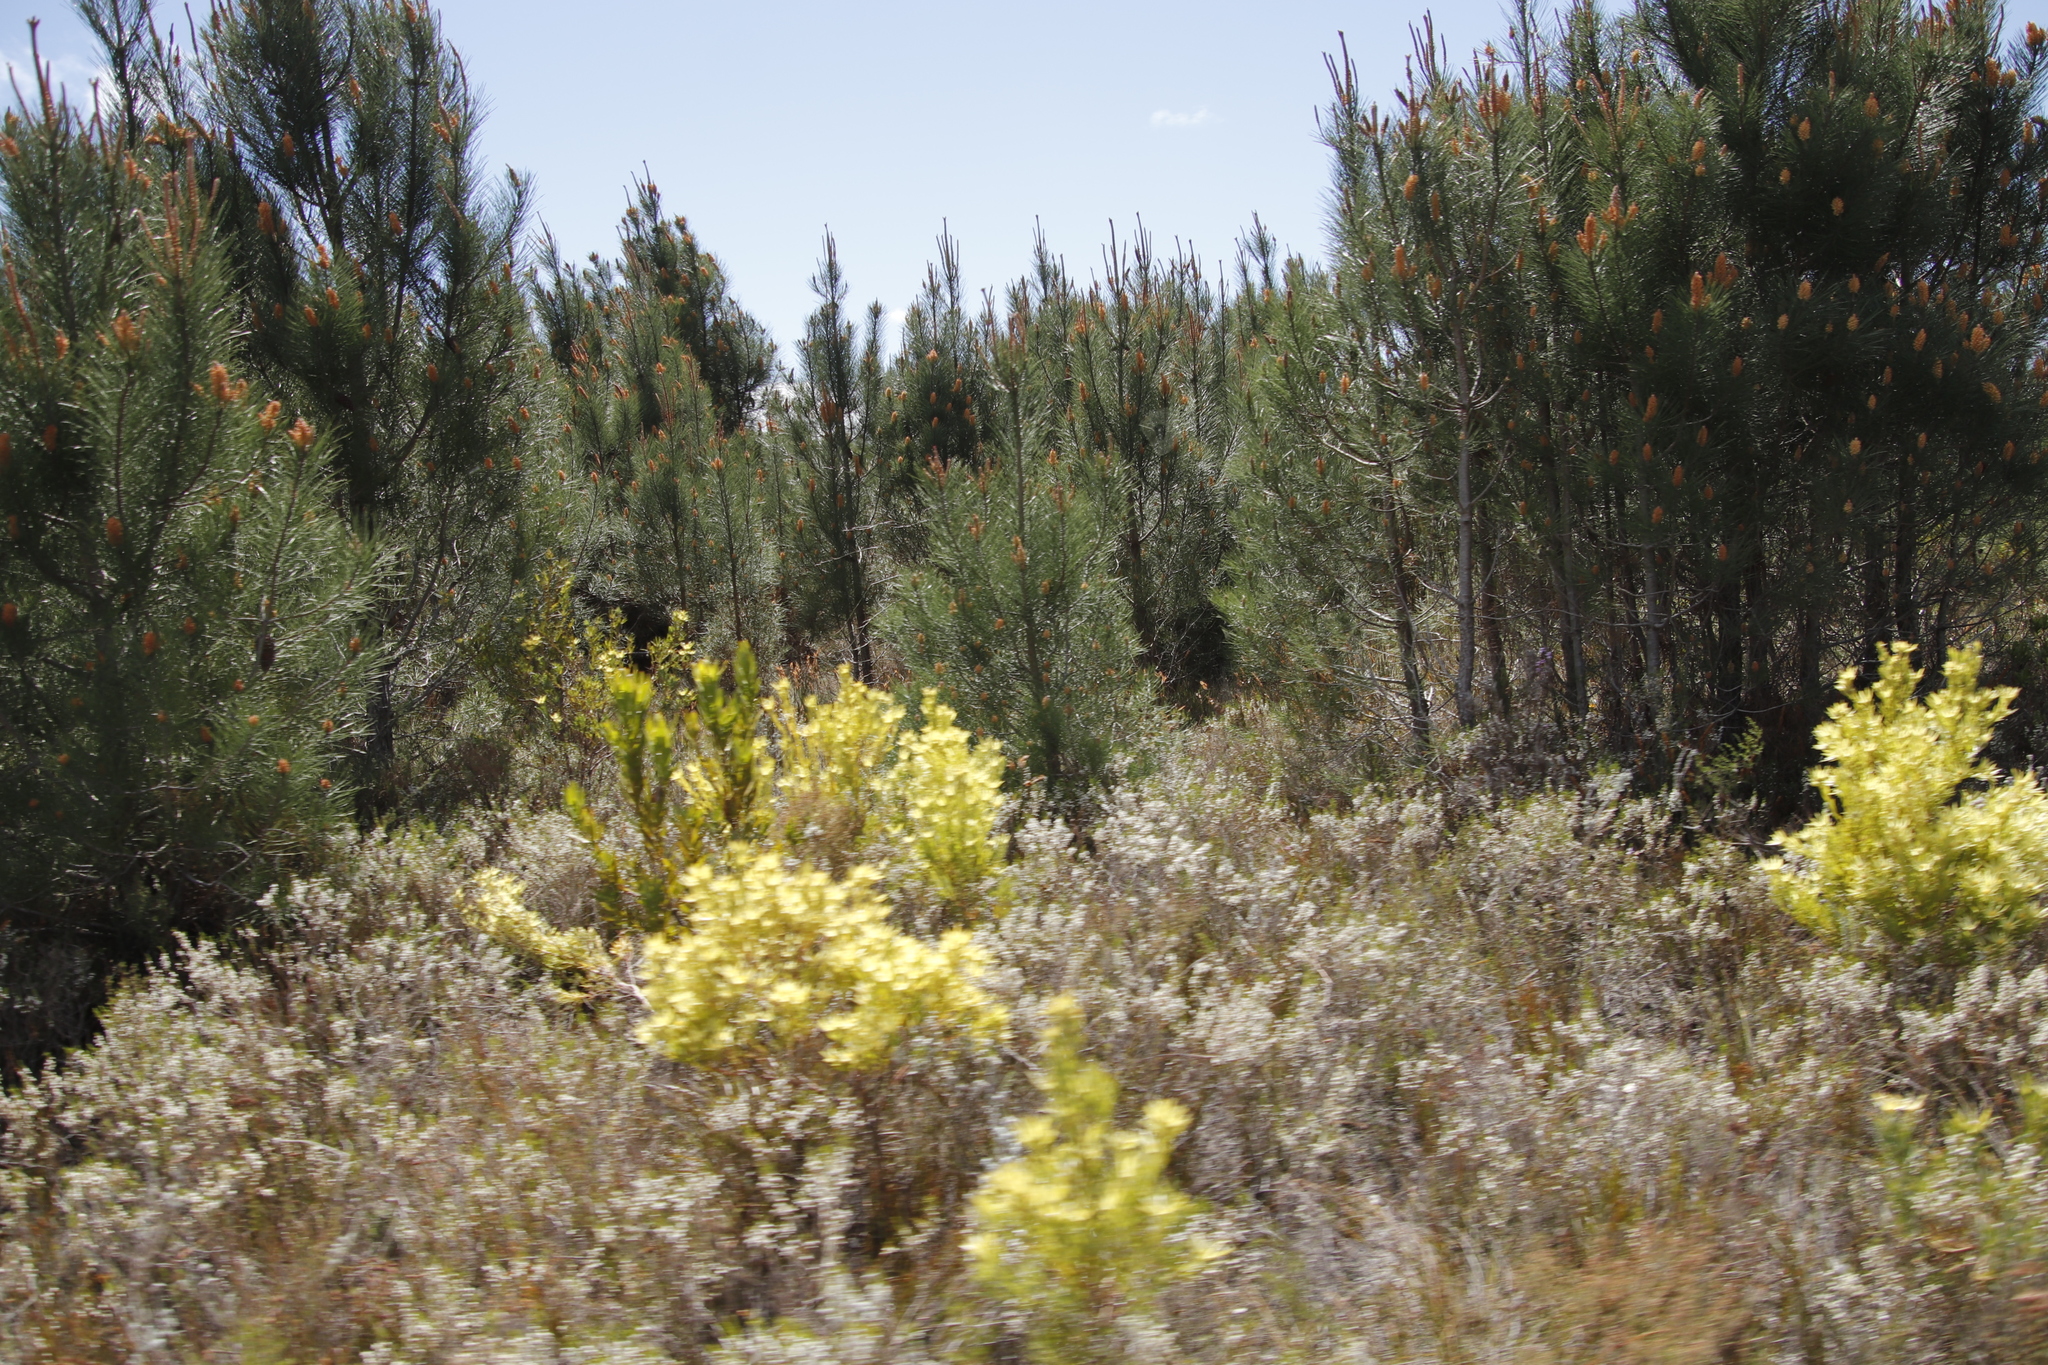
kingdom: Plantae
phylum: Tracheophyta
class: Pinopsida
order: Pinales
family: Pinaceae
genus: Pinus
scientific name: Pinus pinaster
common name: Maritime pine
